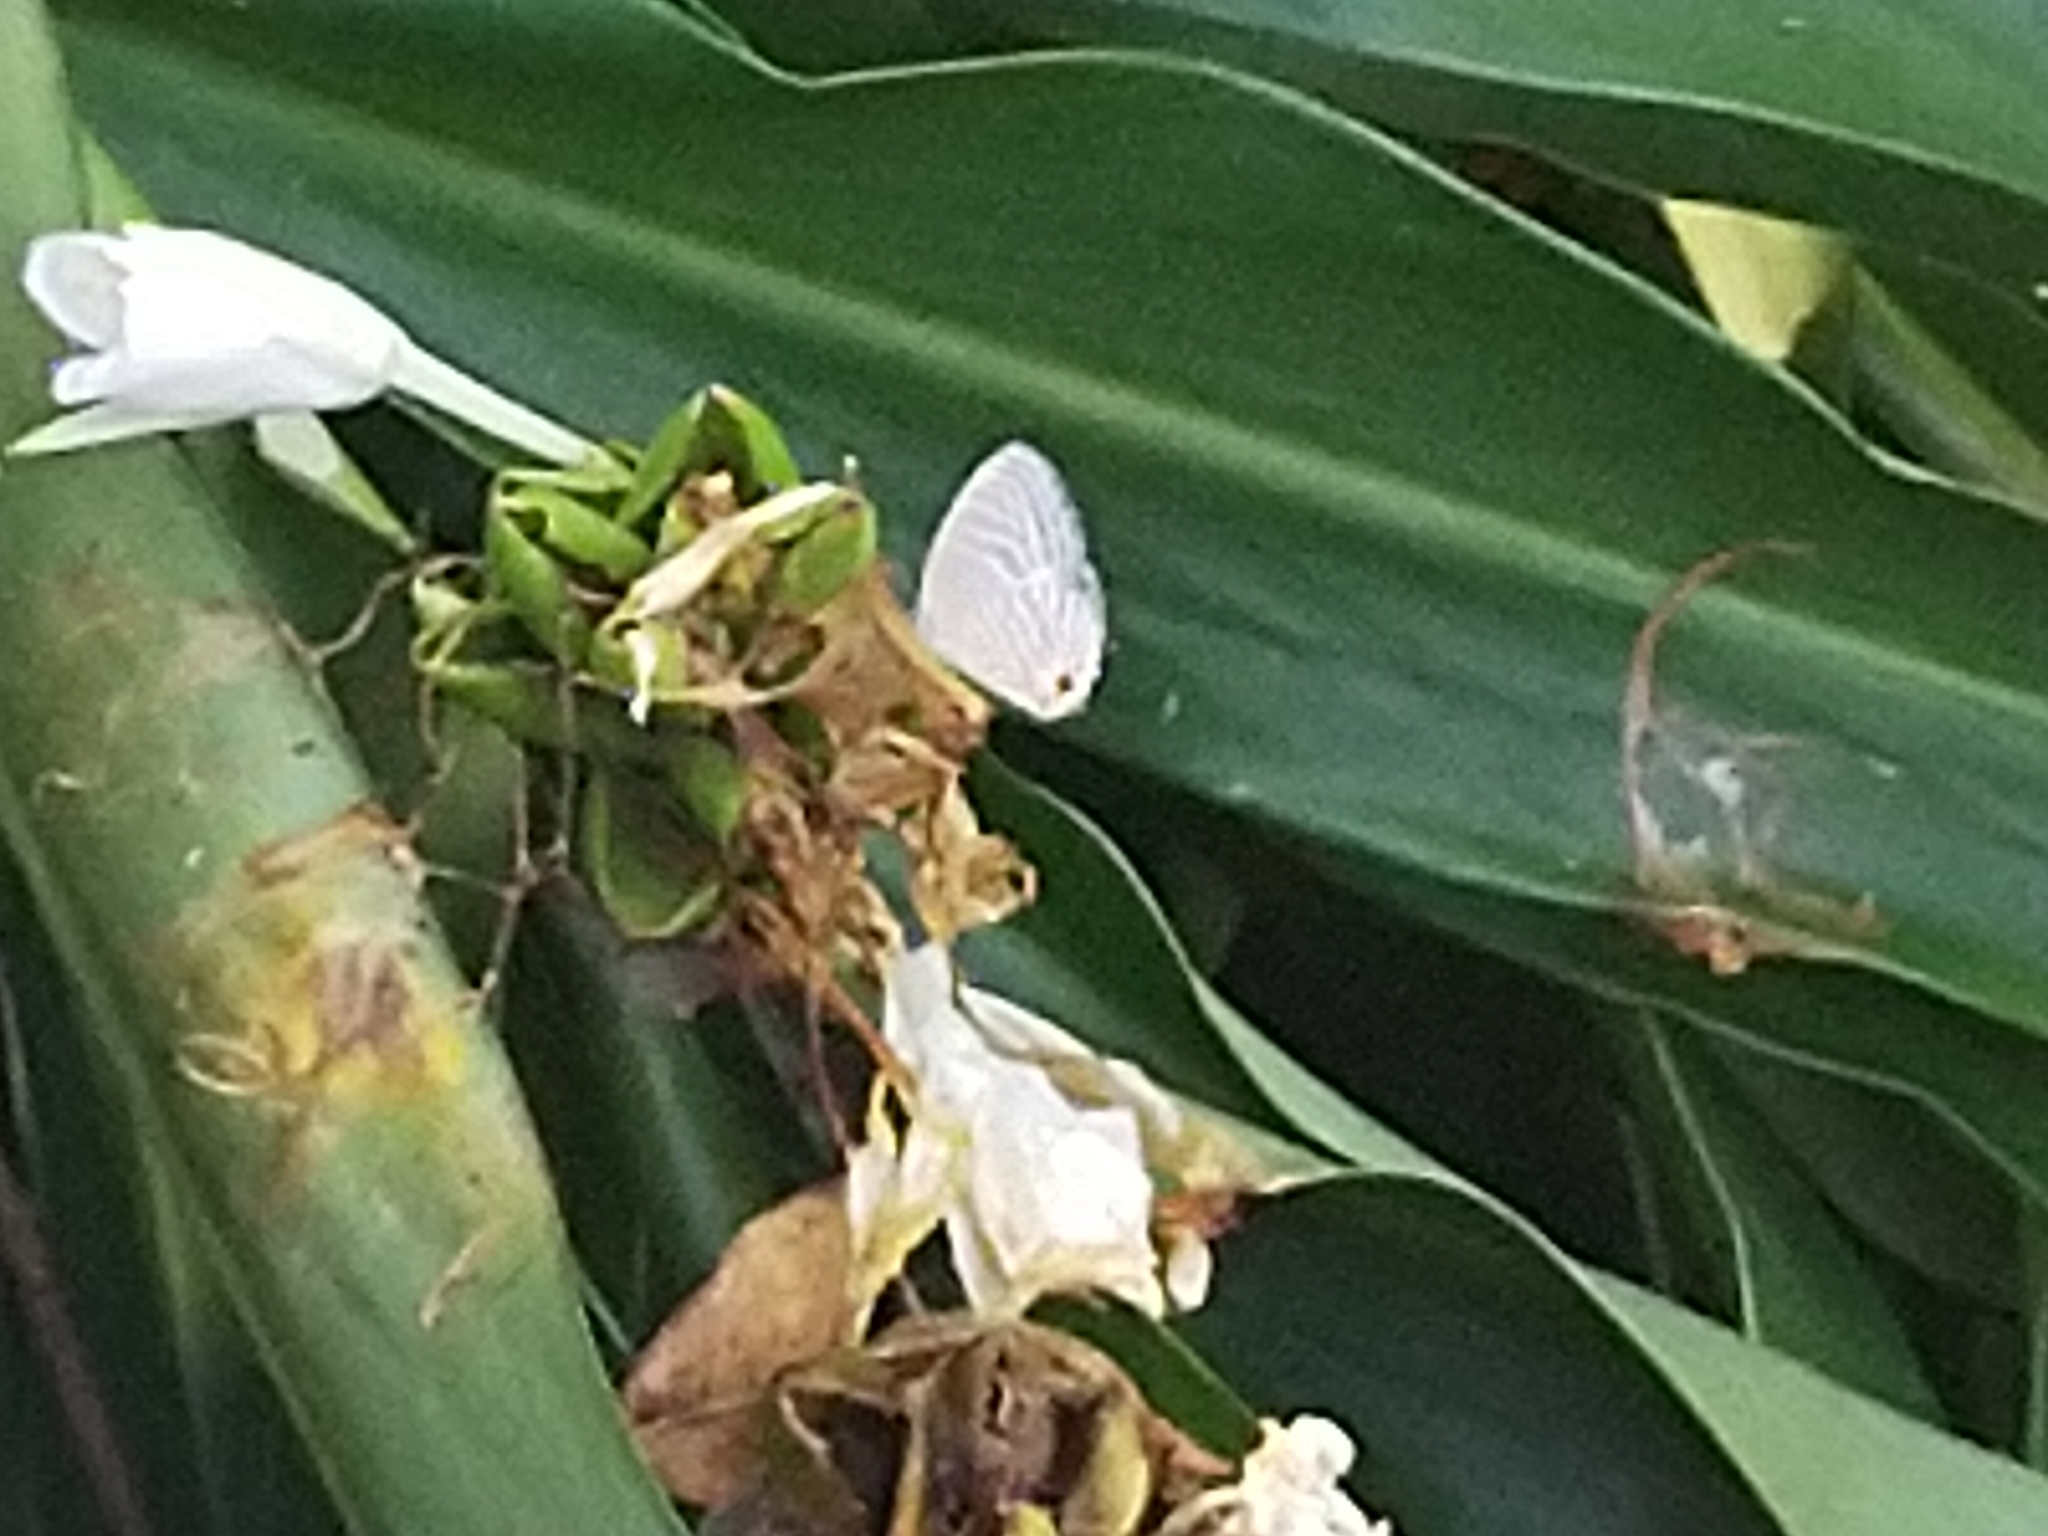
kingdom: Animalia
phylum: Arthropoda
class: Insecta
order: Lepidoptera
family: Lycaenidae
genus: Jamides
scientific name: Jamides alecto
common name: Metallic cerulean
